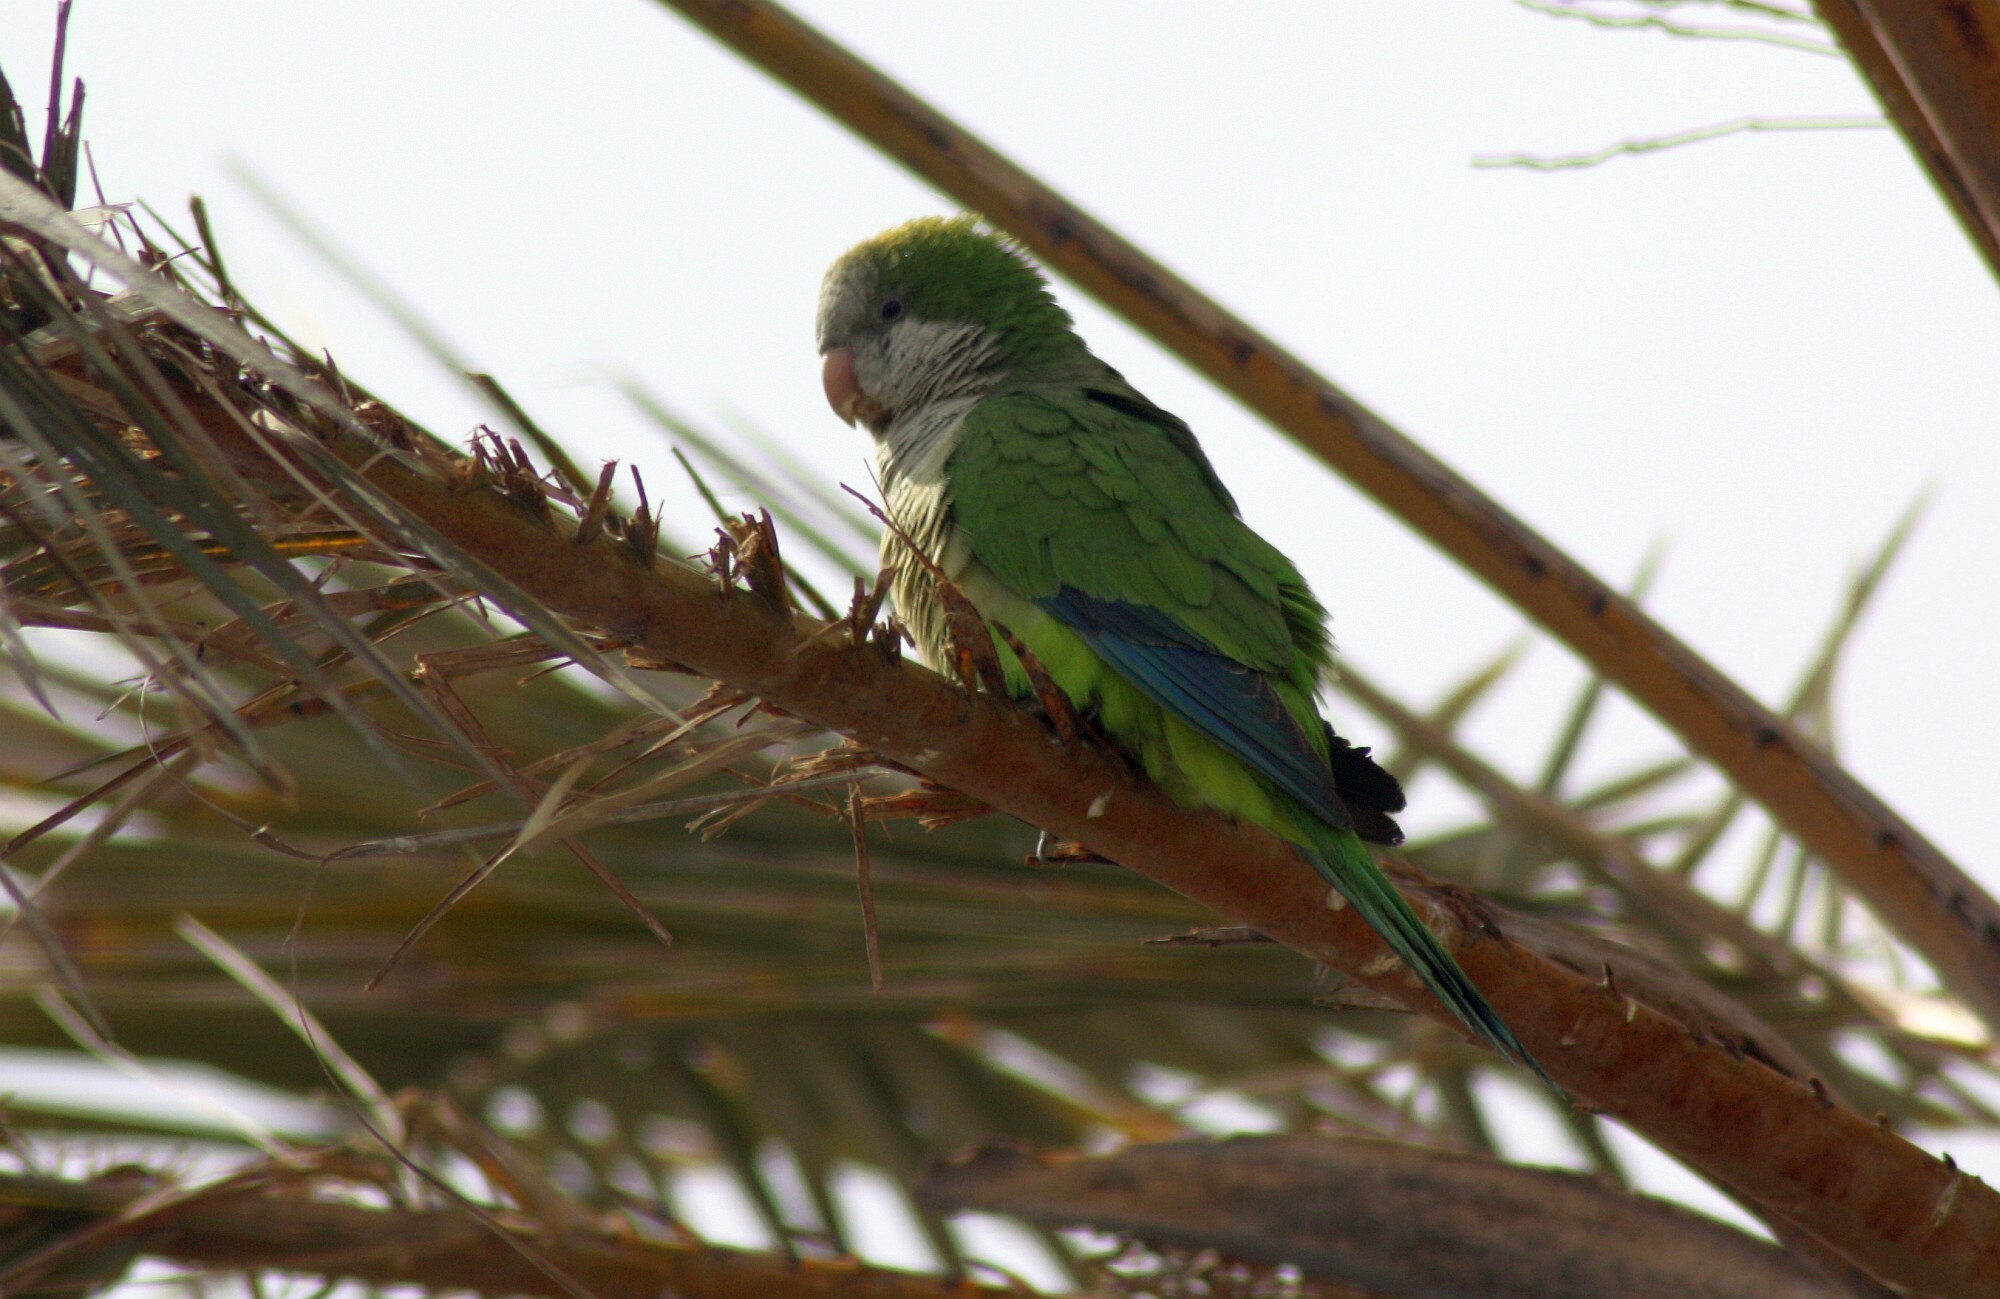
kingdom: Animalia
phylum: Chordata
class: Aves
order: Psittaciformes
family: Psittacidae
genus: Myiopsitta
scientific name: Myiopsitta monachus
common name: Monk parakeet
